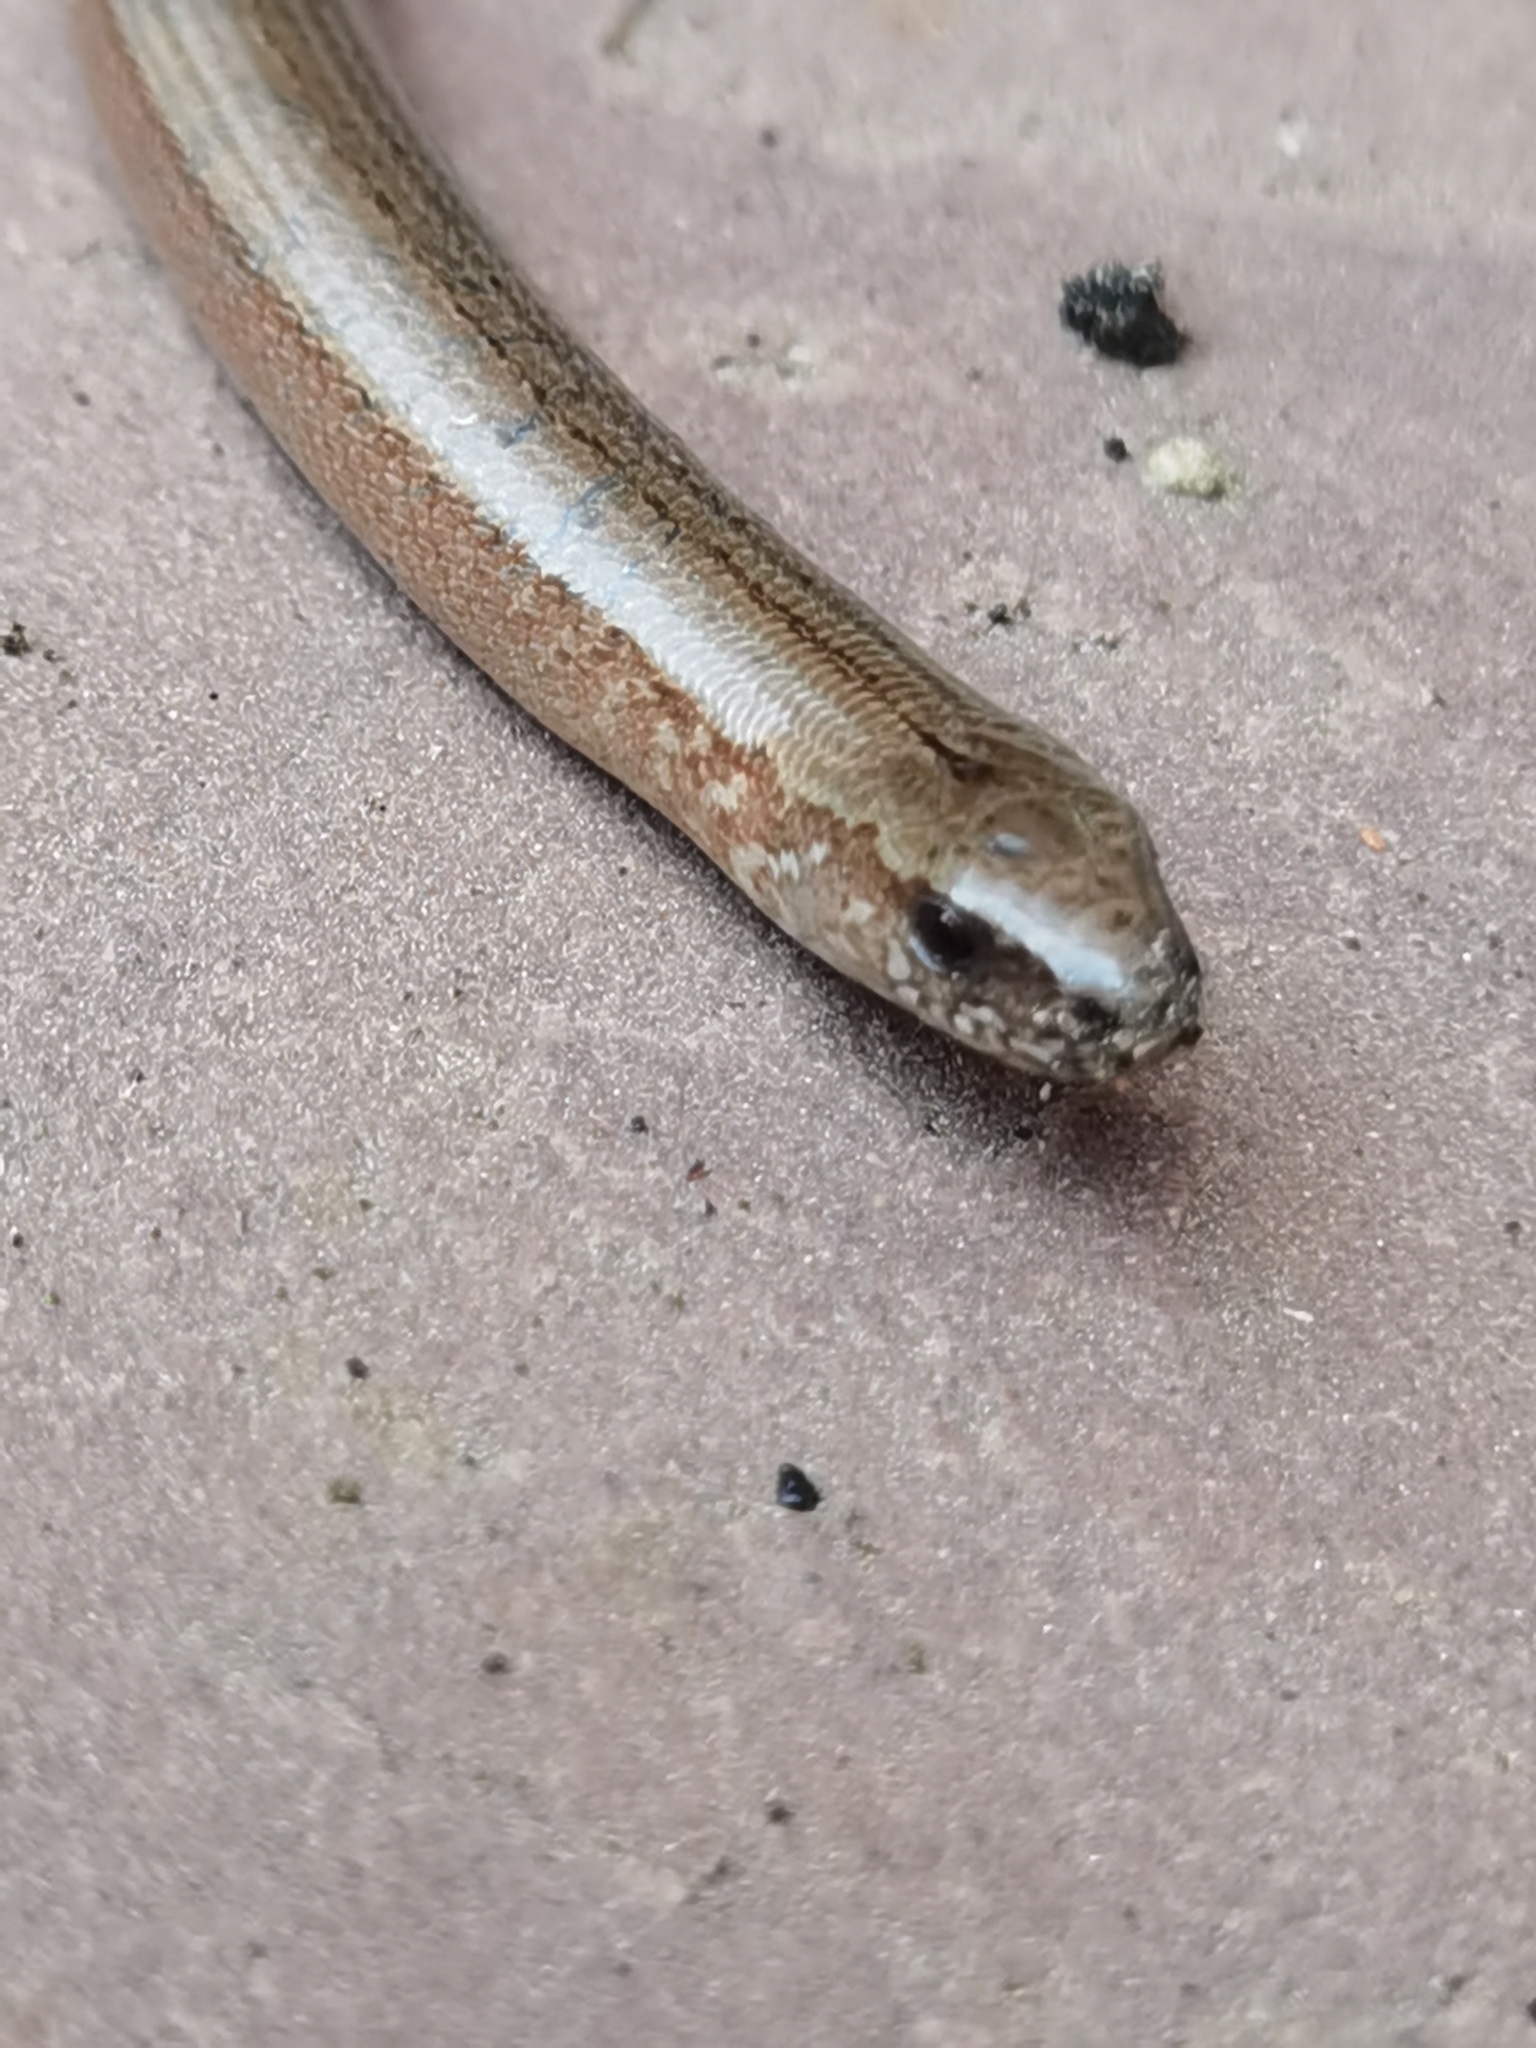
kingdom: Animalia
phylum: Chordata
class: Squamata
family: Anguidae
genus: Anguis
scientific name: Anguis fragilis
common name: Slow worm
